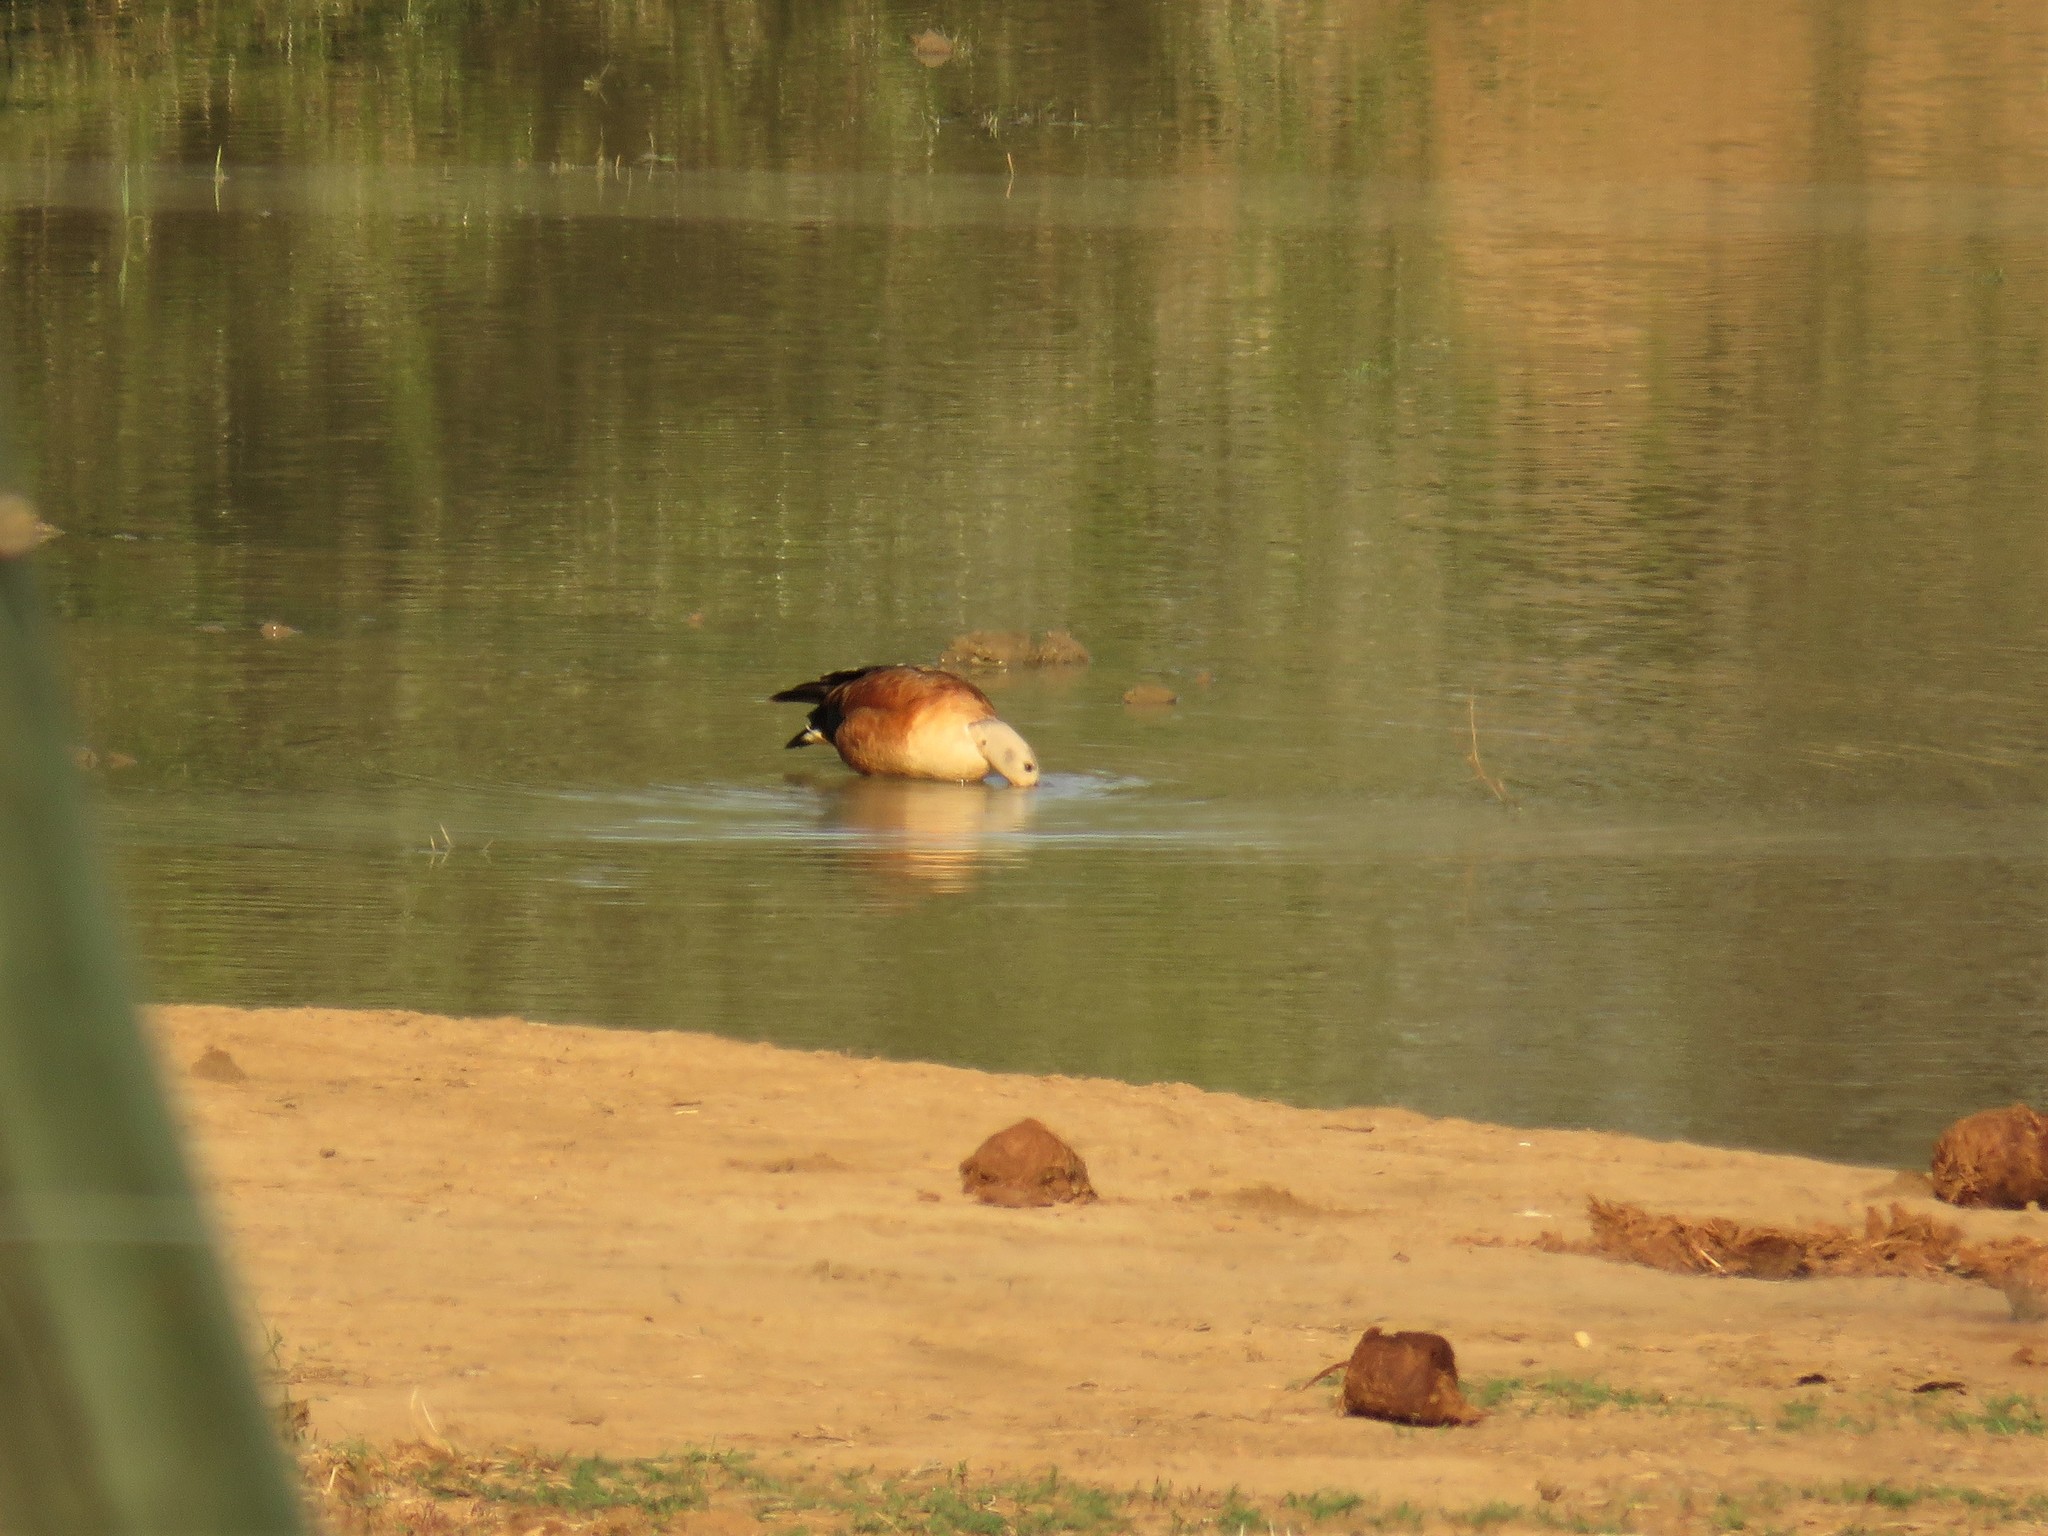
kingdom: Animalia
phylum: Chordata
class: Aves
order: Anseriformes
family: Anatidae
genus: Tadorna
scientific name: Tadorna cana
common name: South african shelduck
